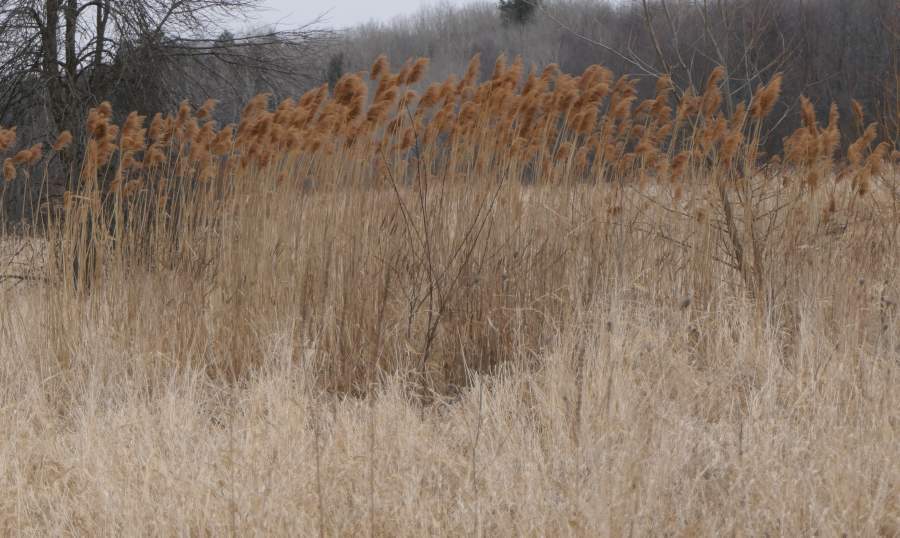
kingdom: Plantae
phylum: Tracheophyta
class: Liliopsida
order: Poales
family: Poaceae
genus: Phragmites
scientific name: Phragmites australis
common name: Common reed
